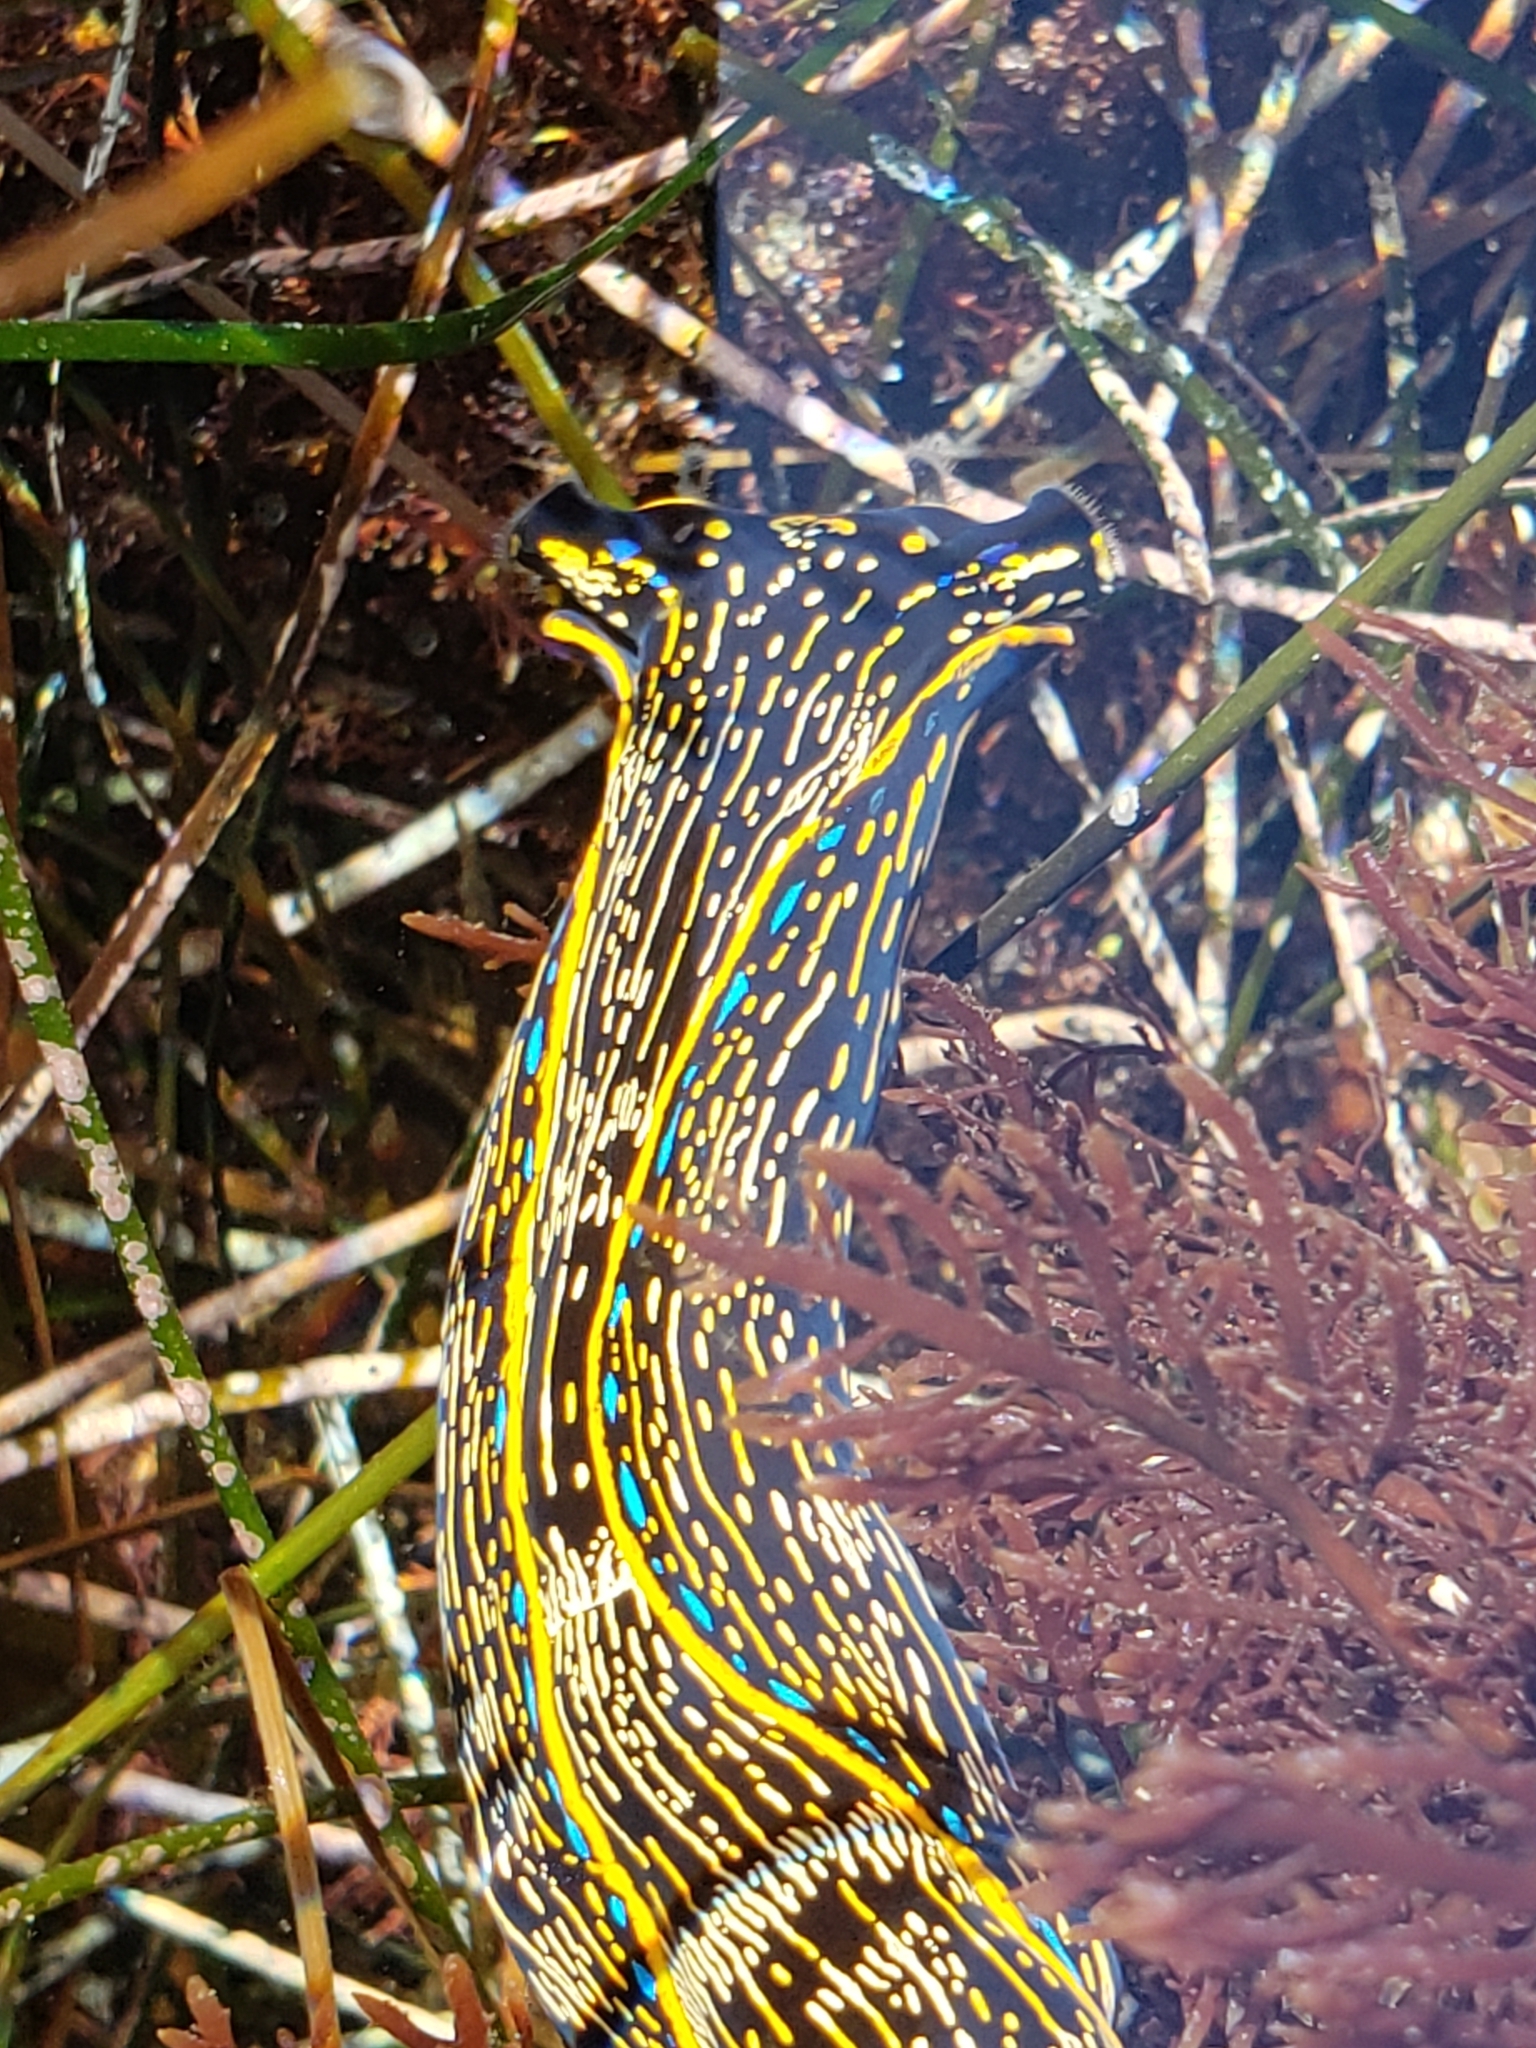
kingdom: Animalia
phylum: Mollusca
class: Gastropoda
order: Cephalaspidea
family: Aglajidae
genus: Navanax
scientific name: Navanax inermis
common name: California aglaja
